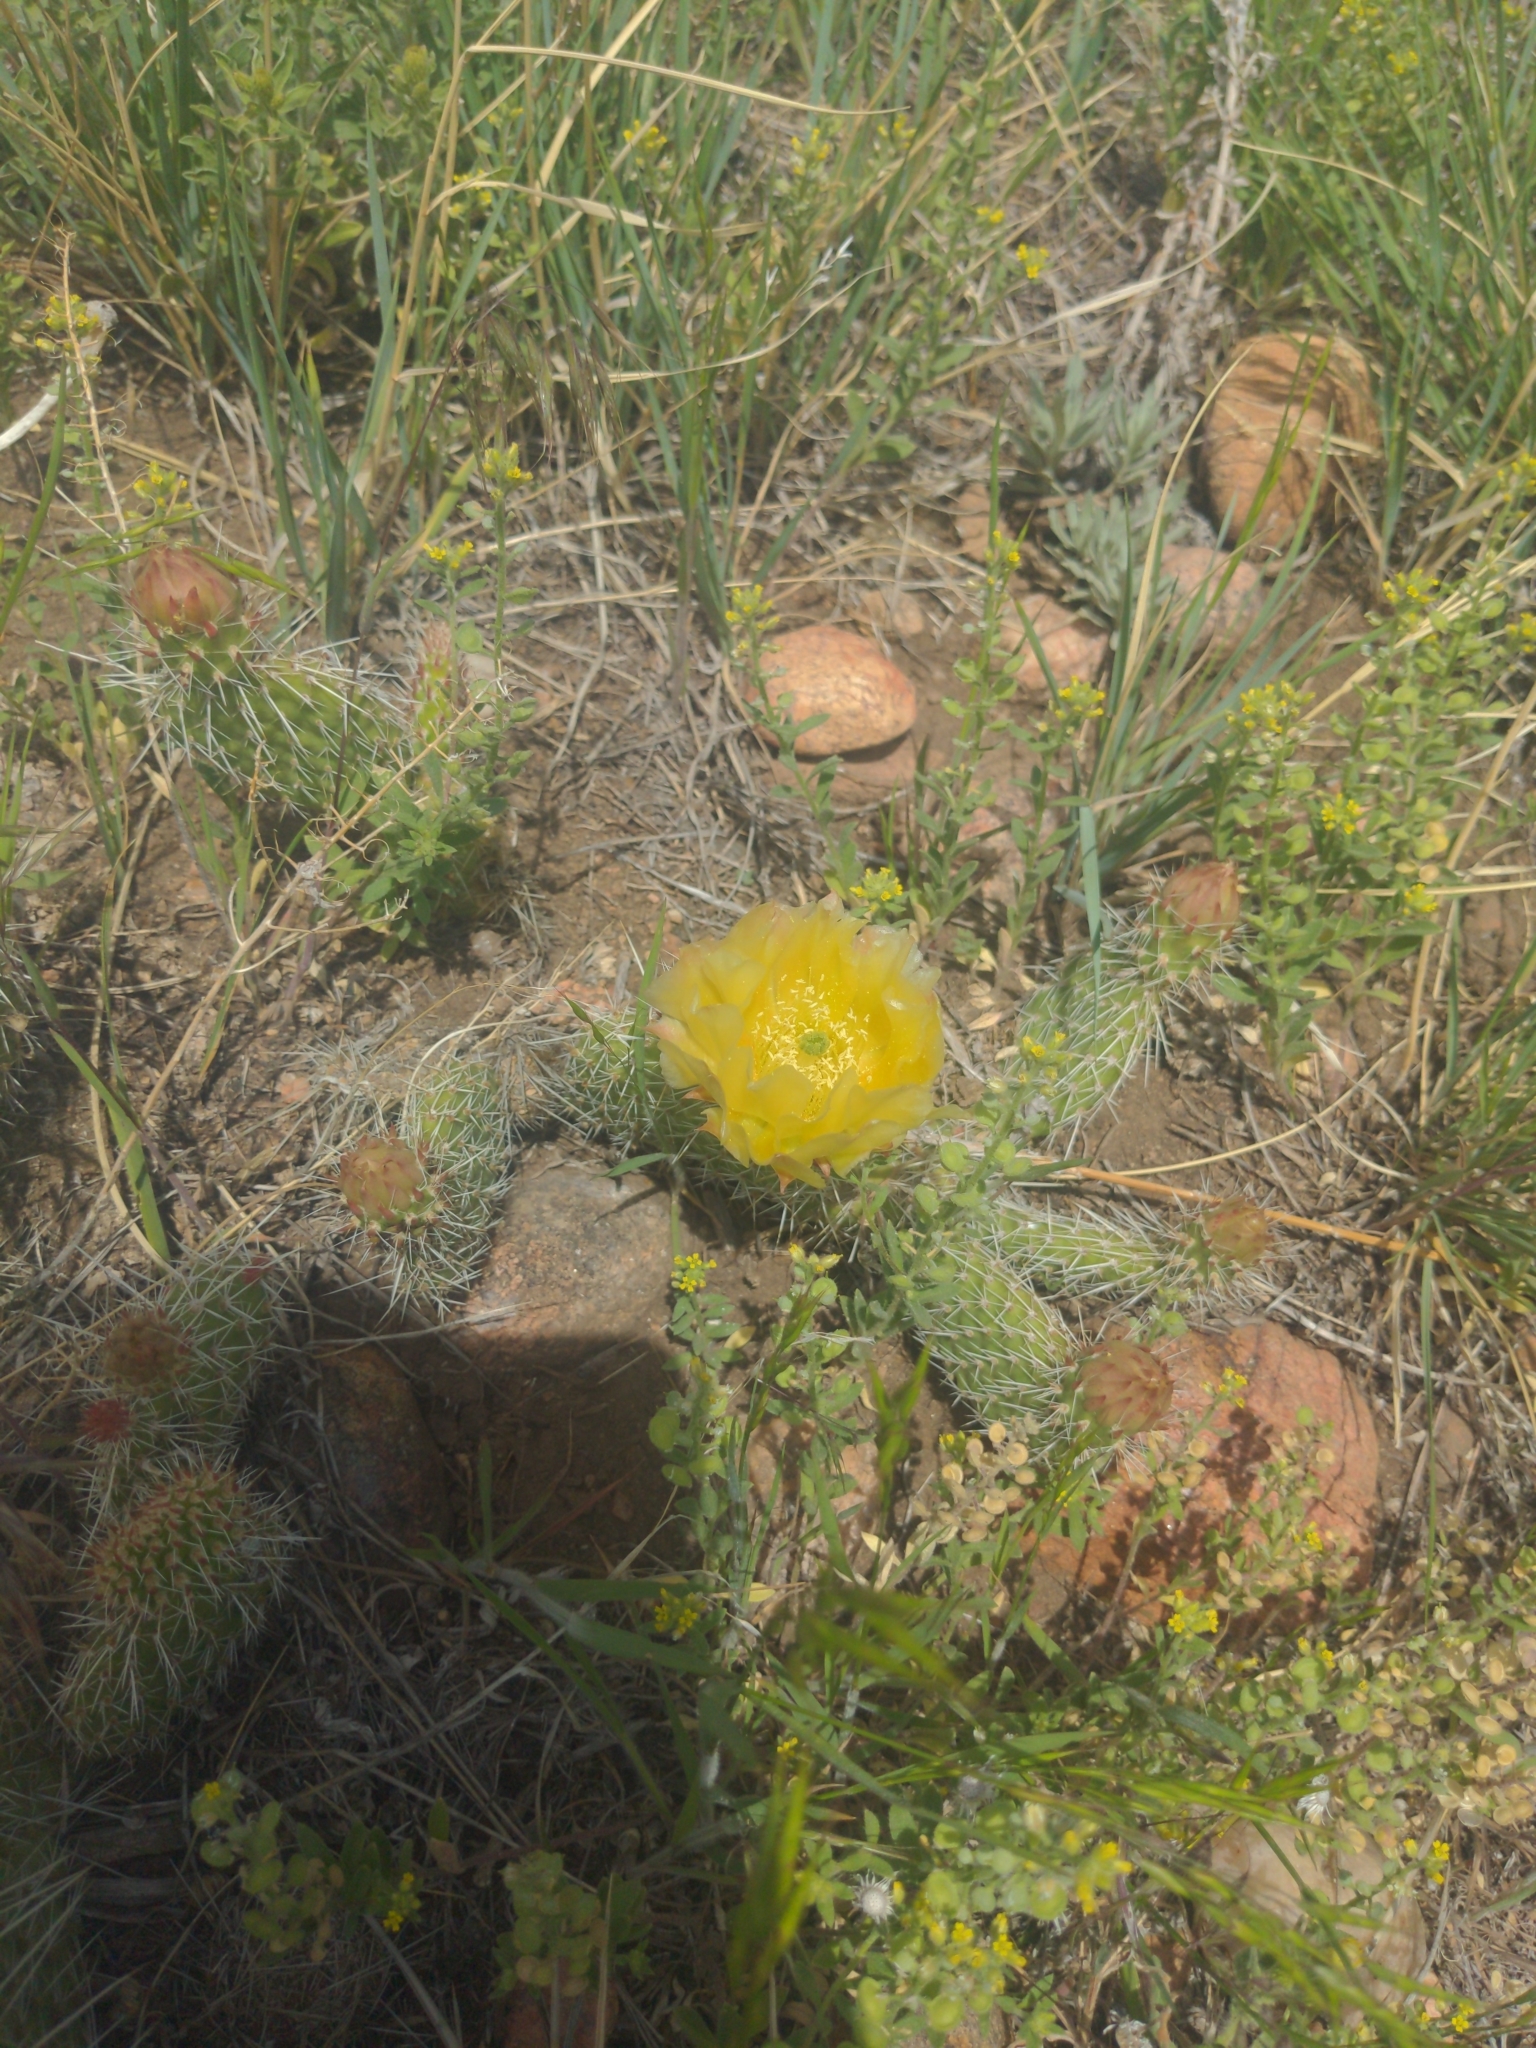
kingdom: Plantae
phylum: Tracheophyta
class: Magnoliopsida
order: Caryophyllales
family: Cactaceae
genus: Opuntia
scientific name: Opuntia polyacantha
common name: Plains prickly-pear
